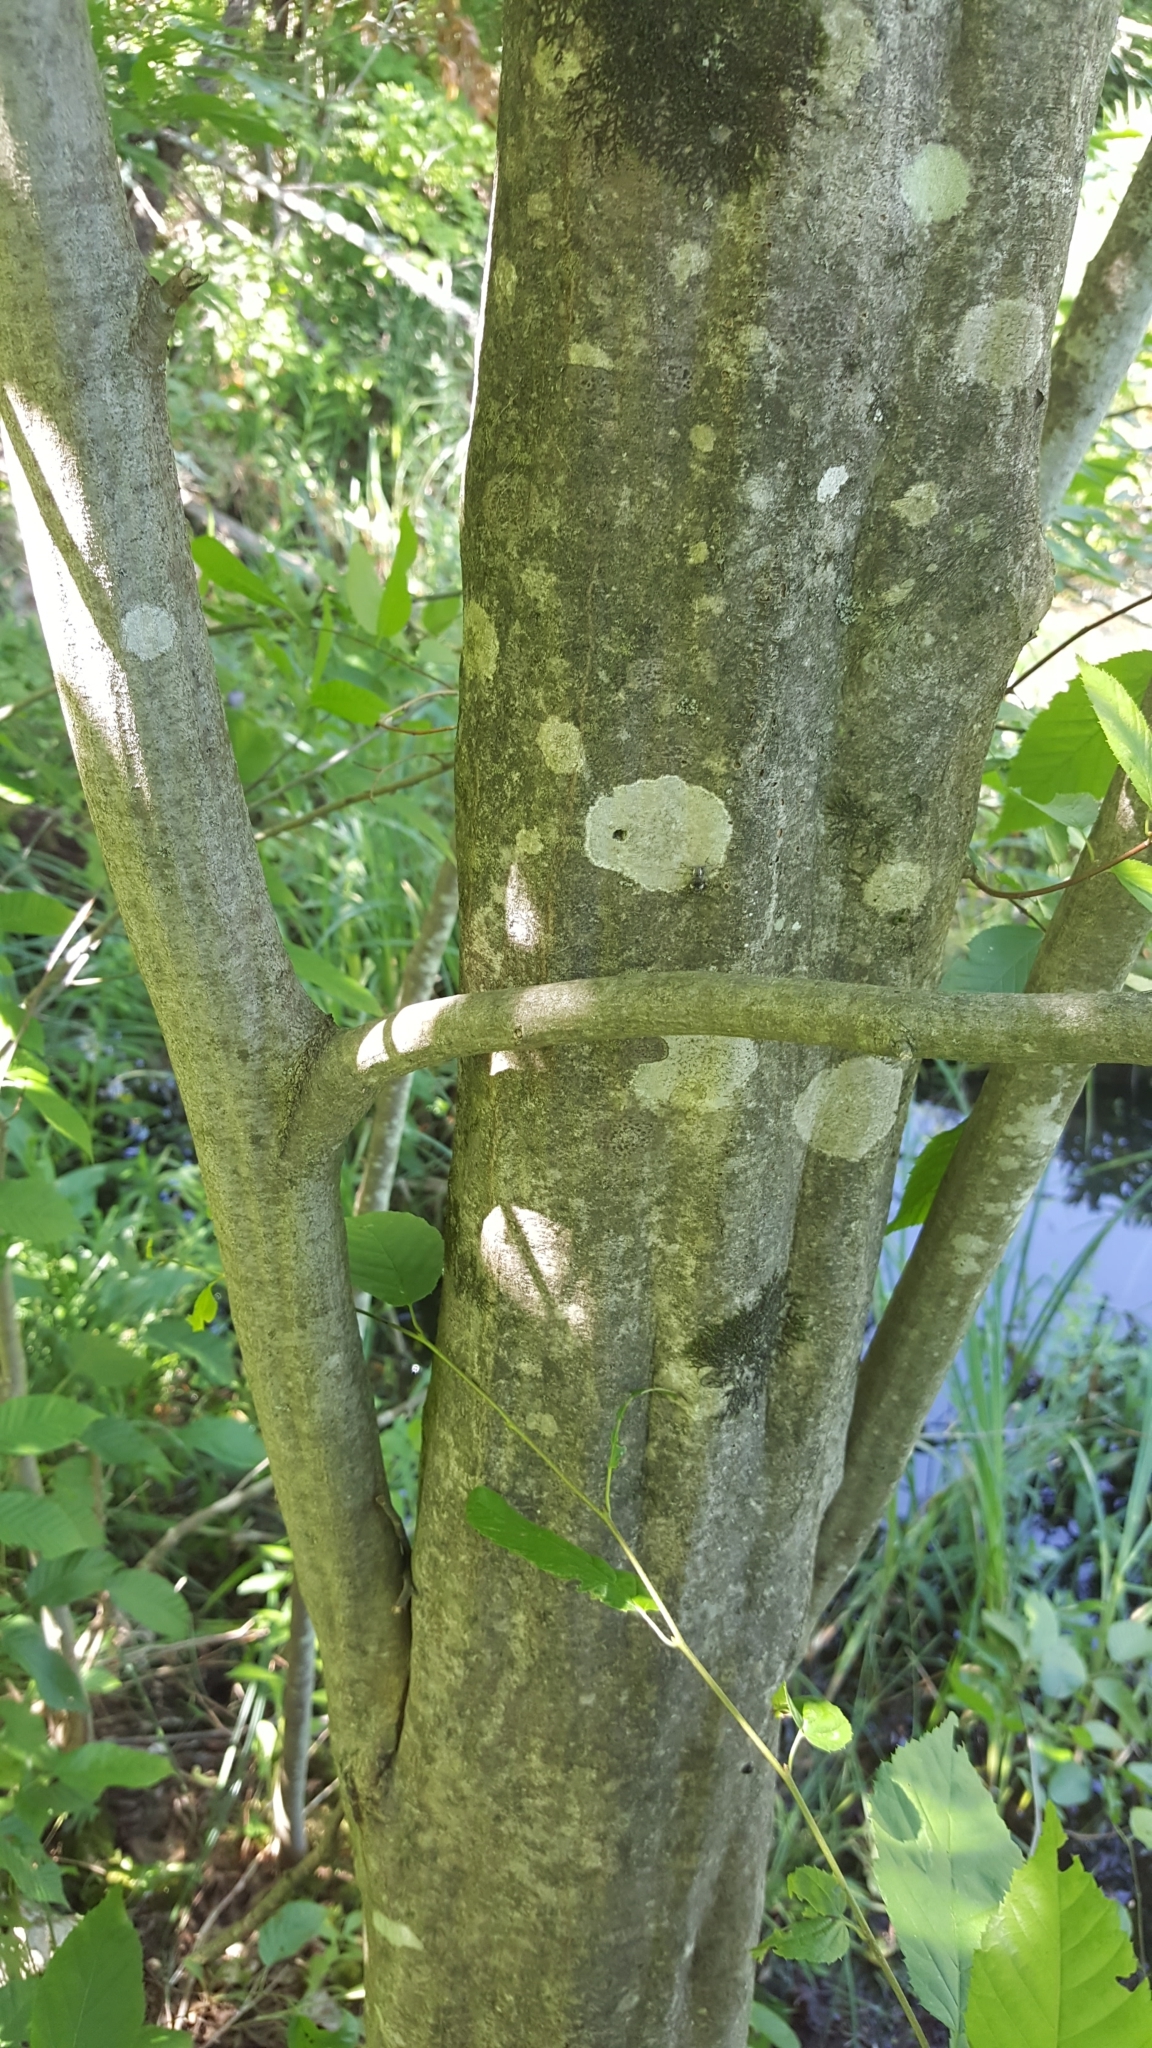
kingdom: Plantae
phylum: Tracheophyta
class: Magnoliopsida
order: Fagales
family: Betulaceae
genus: Carpinus
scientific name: Carpinus caroliniana
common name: American hornbeam
